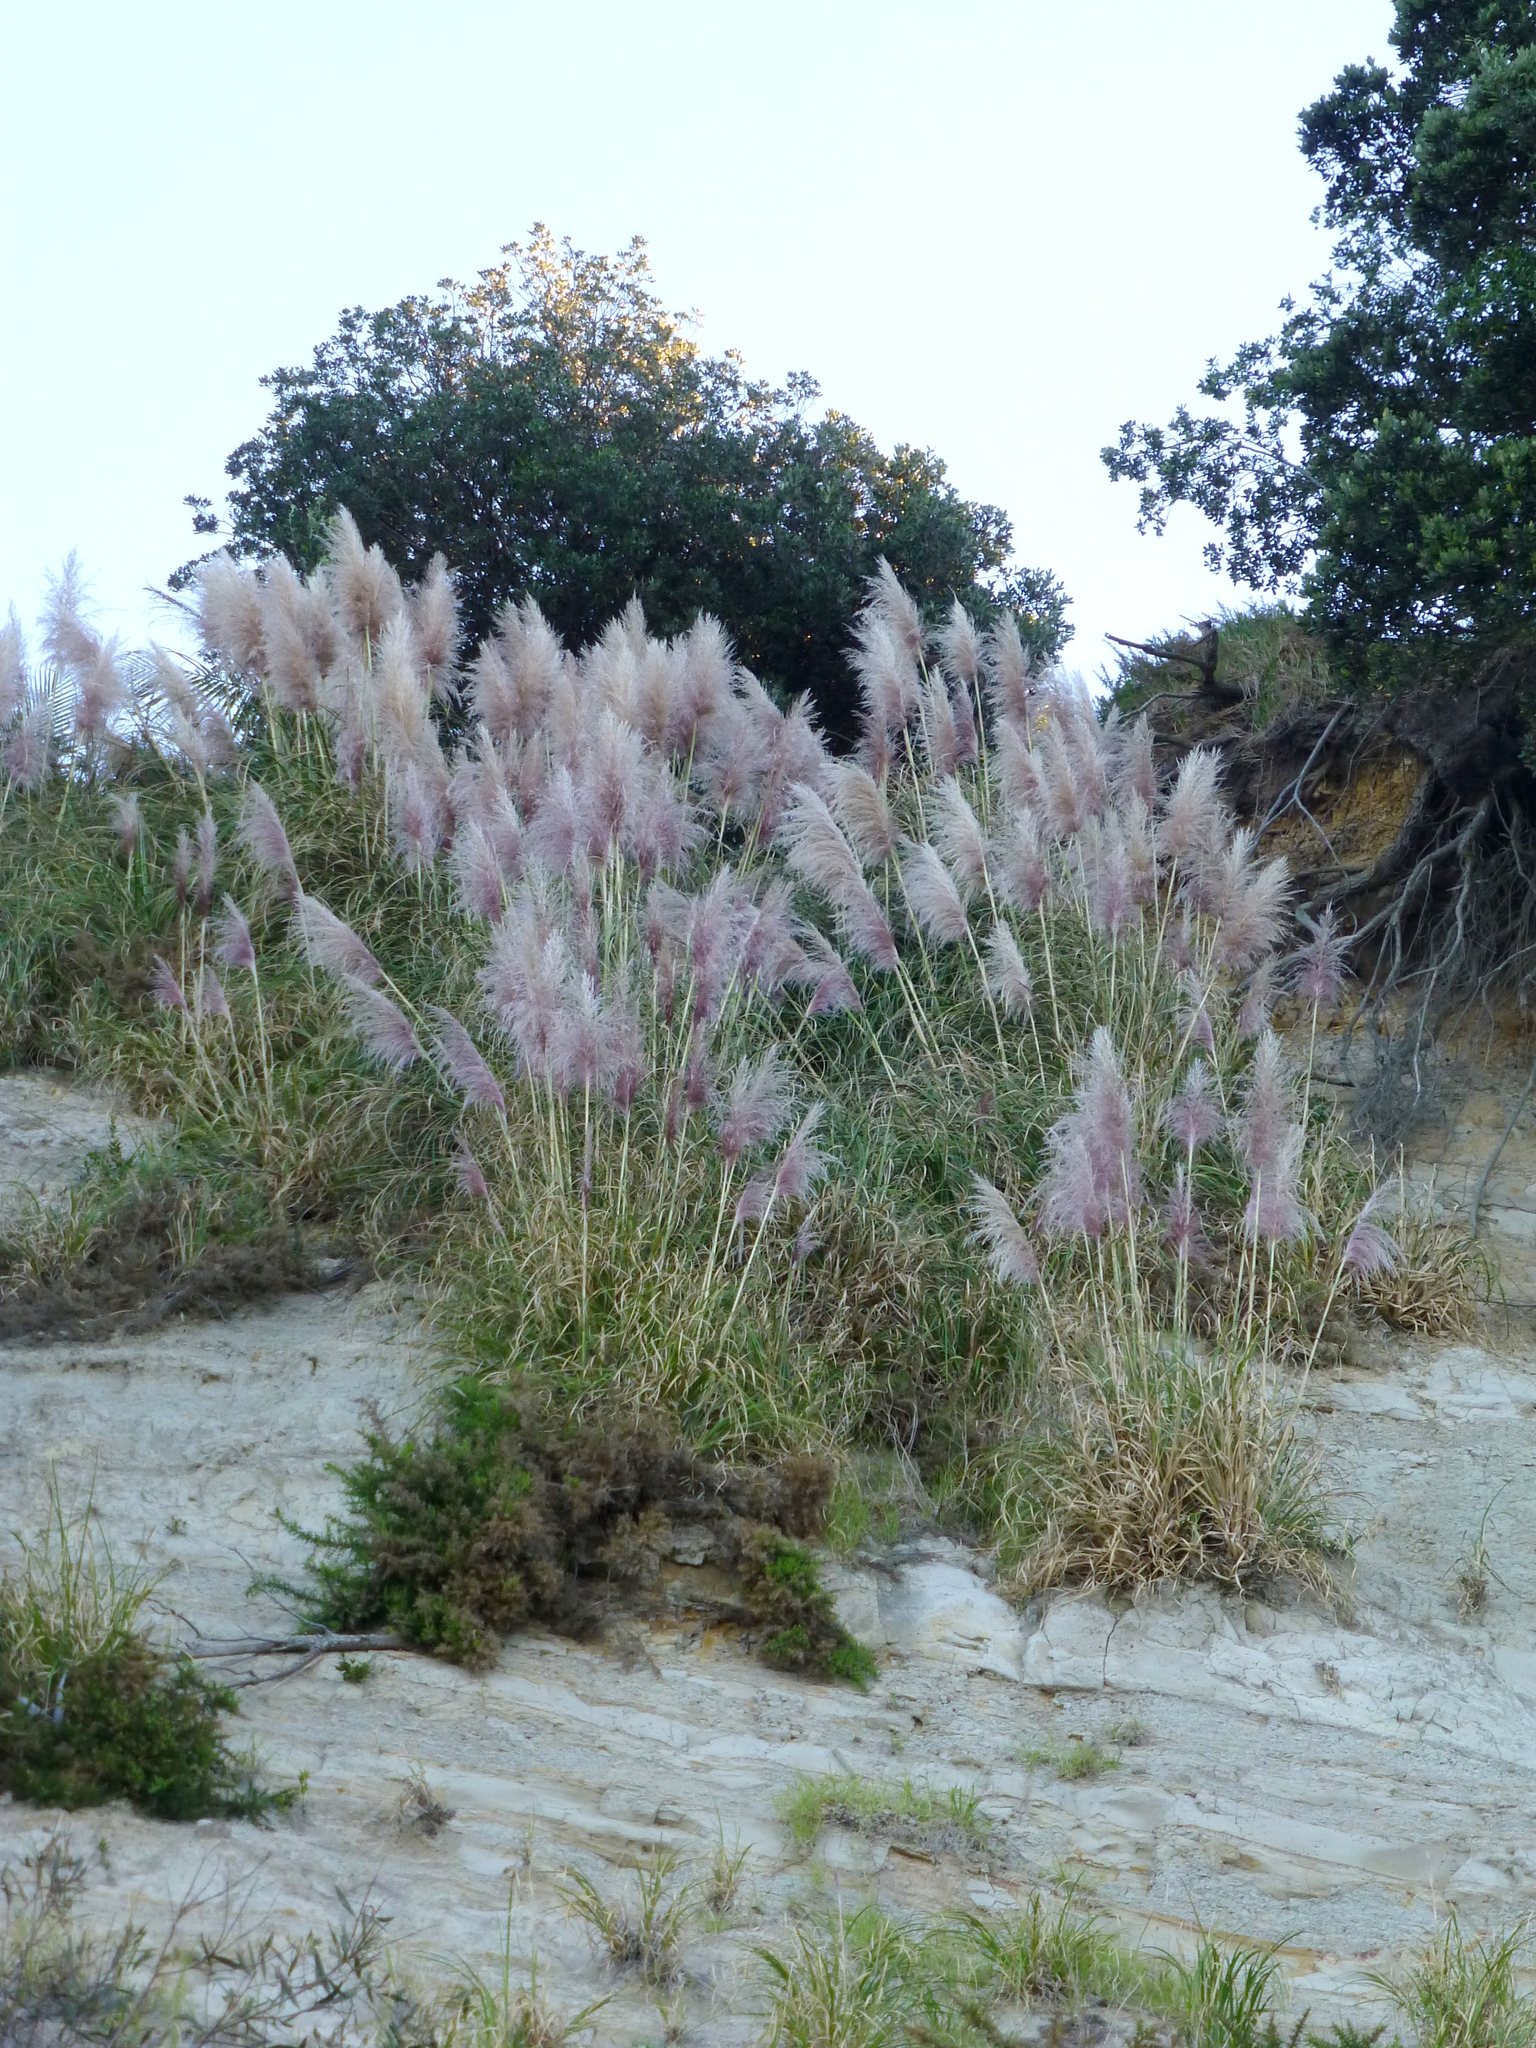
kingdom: Plantae
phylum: Tracheophyta
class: Liliopsida
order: Poales
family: Poaceae
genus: Cortaderia
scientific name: Cortaderia jubata
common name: Purple pampas grass
